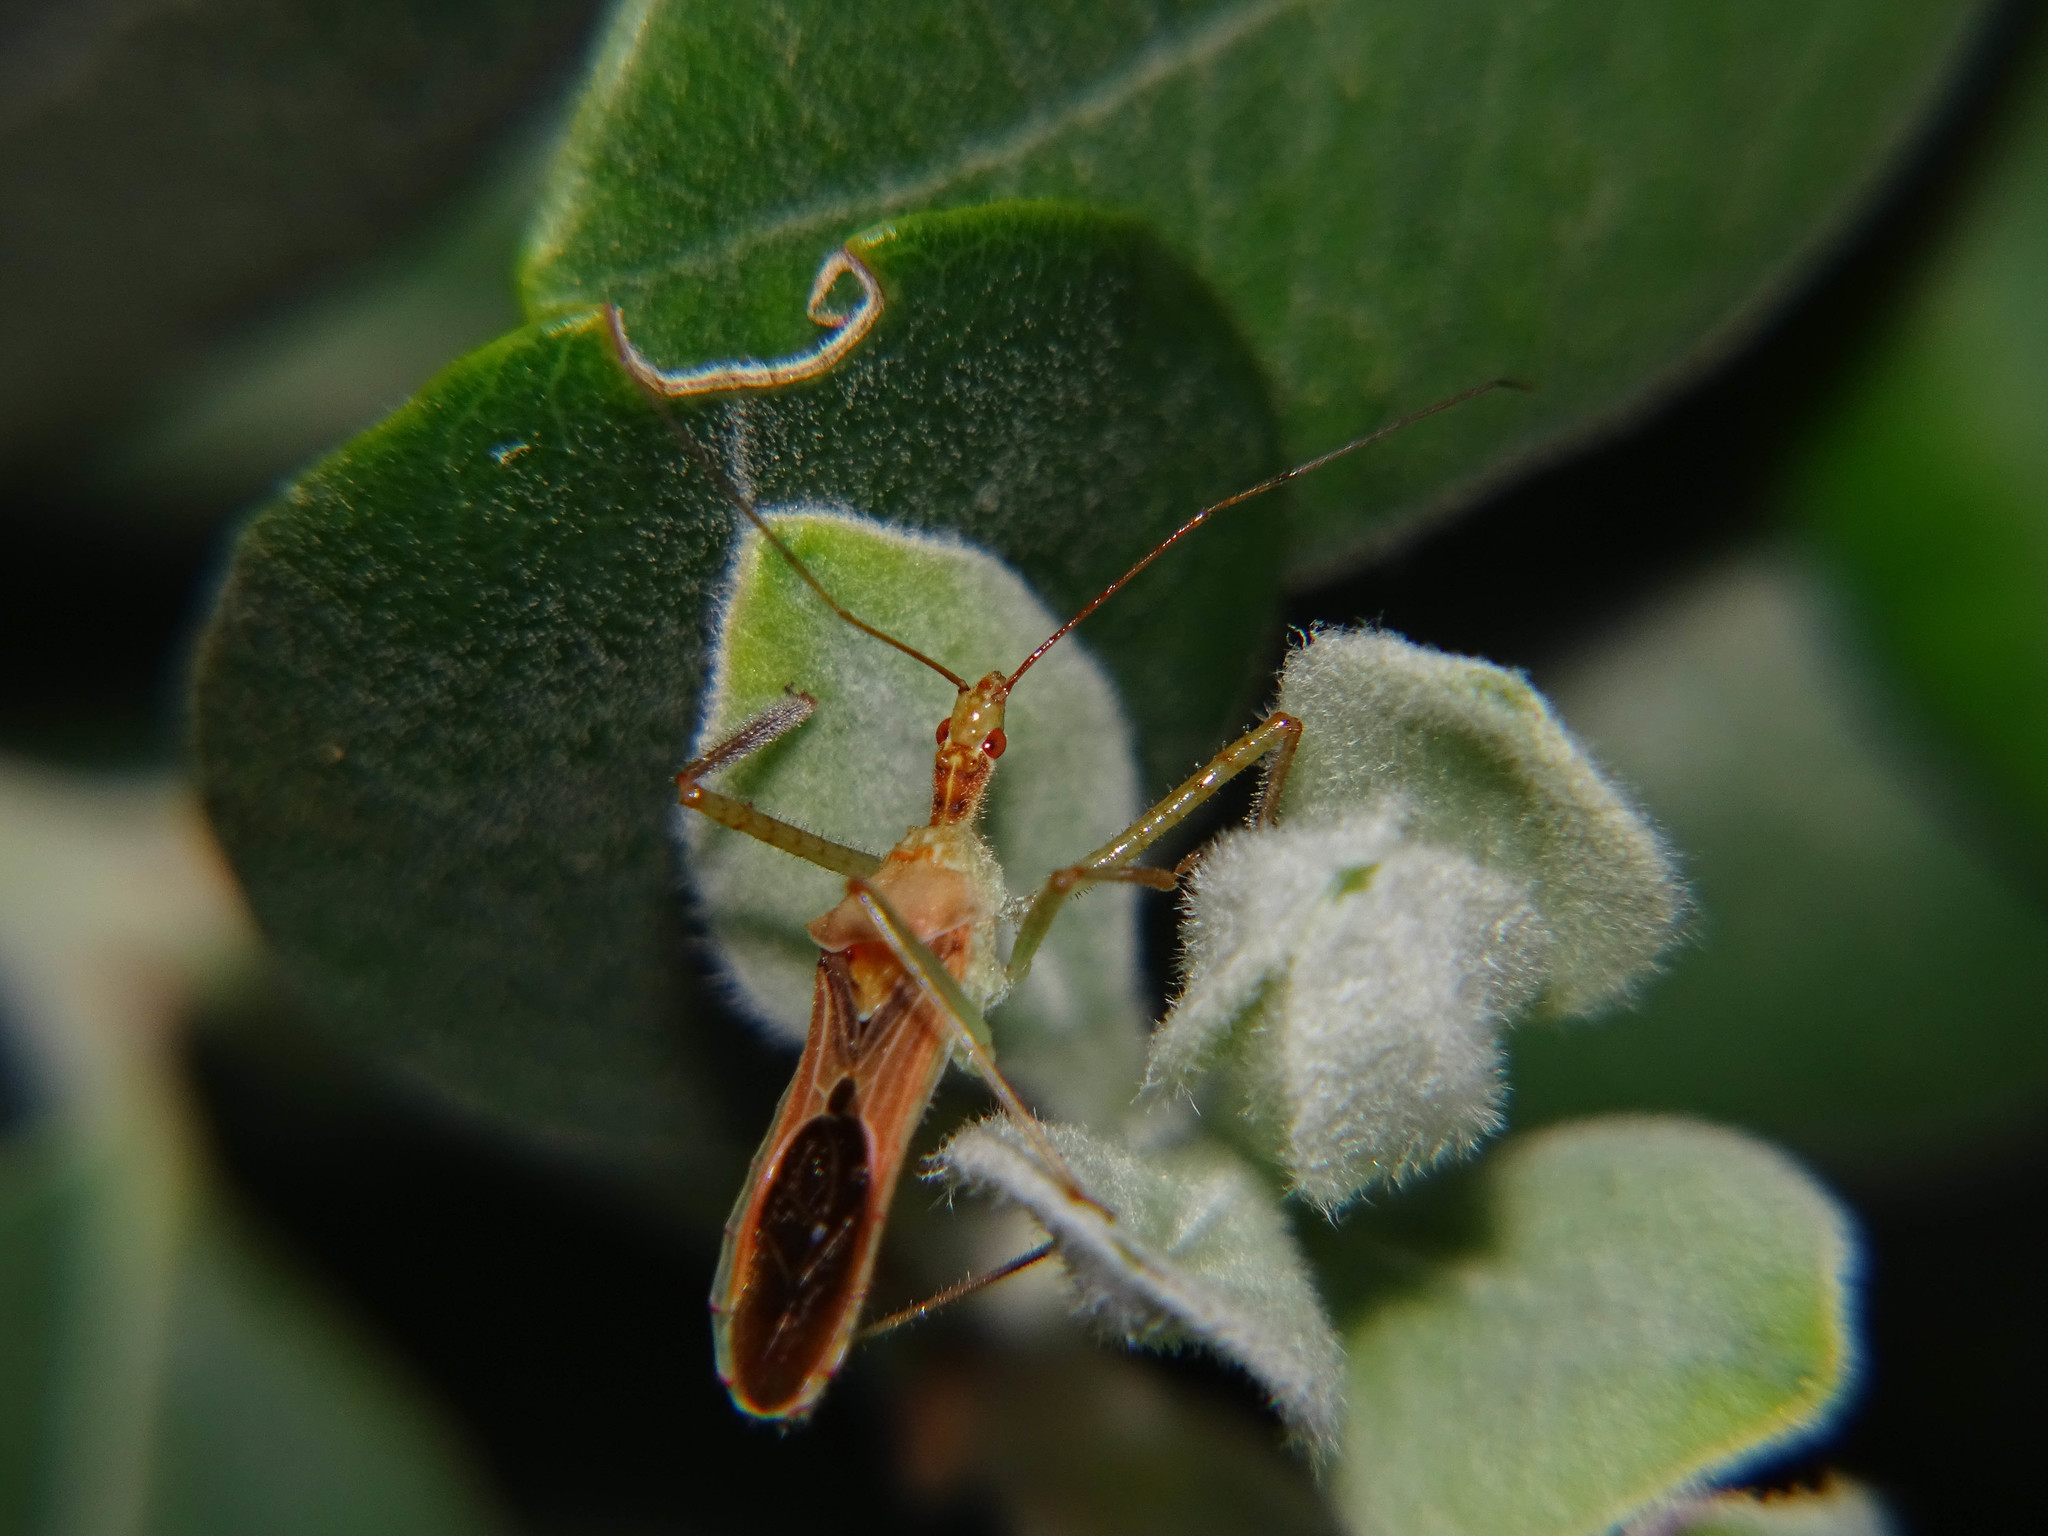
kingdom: Animalia
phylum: Arthropoda
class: Insecta
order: Hemiptera
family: Reduviidae
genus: Zelus
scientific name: Zelus renardii
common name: Assassin bug
